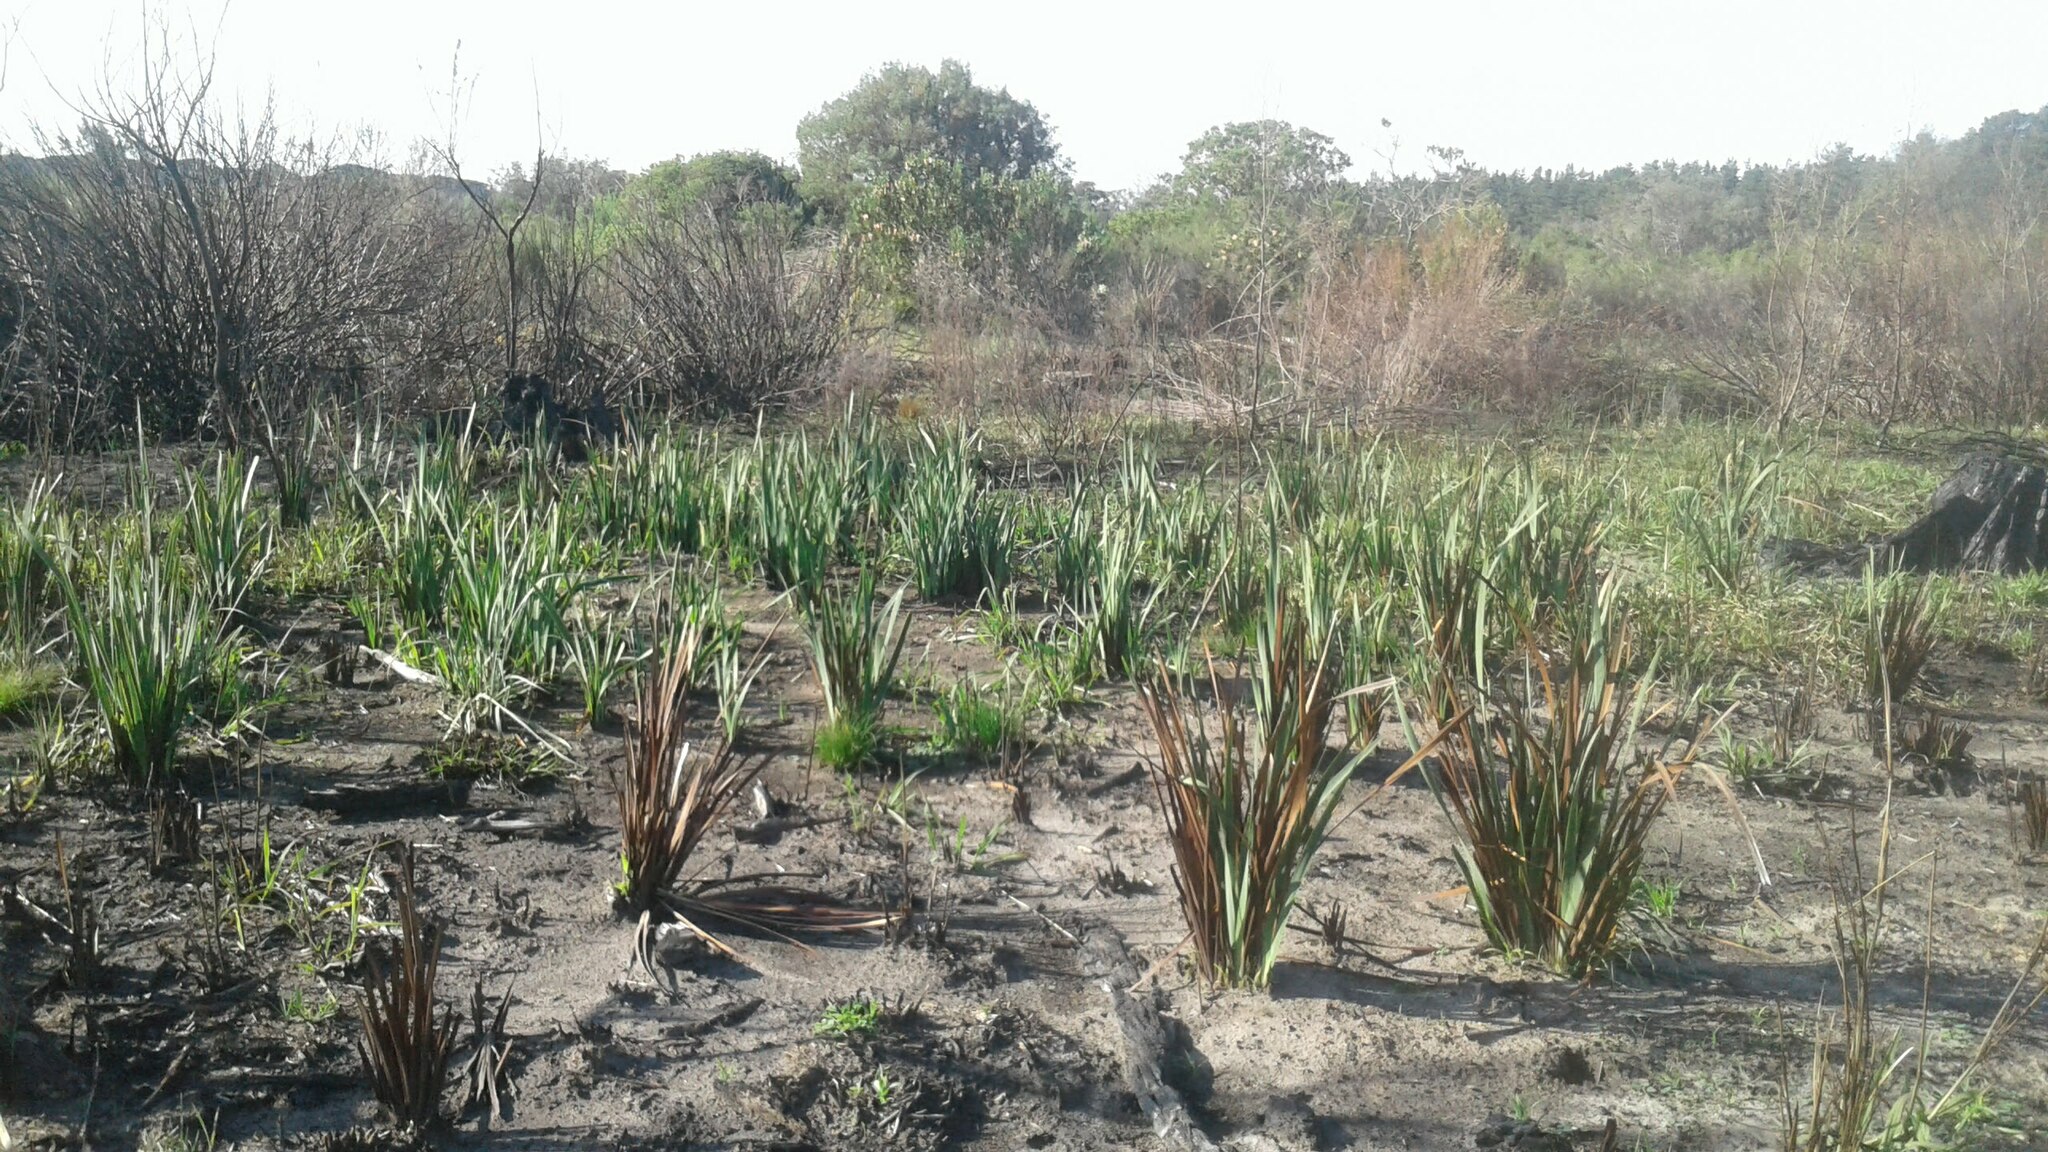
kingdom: Plantae
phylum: Tracheophyta
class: Liliopsida
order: Asparagales
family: Iridaceae
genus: Aristea
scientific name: Aristea capitata
